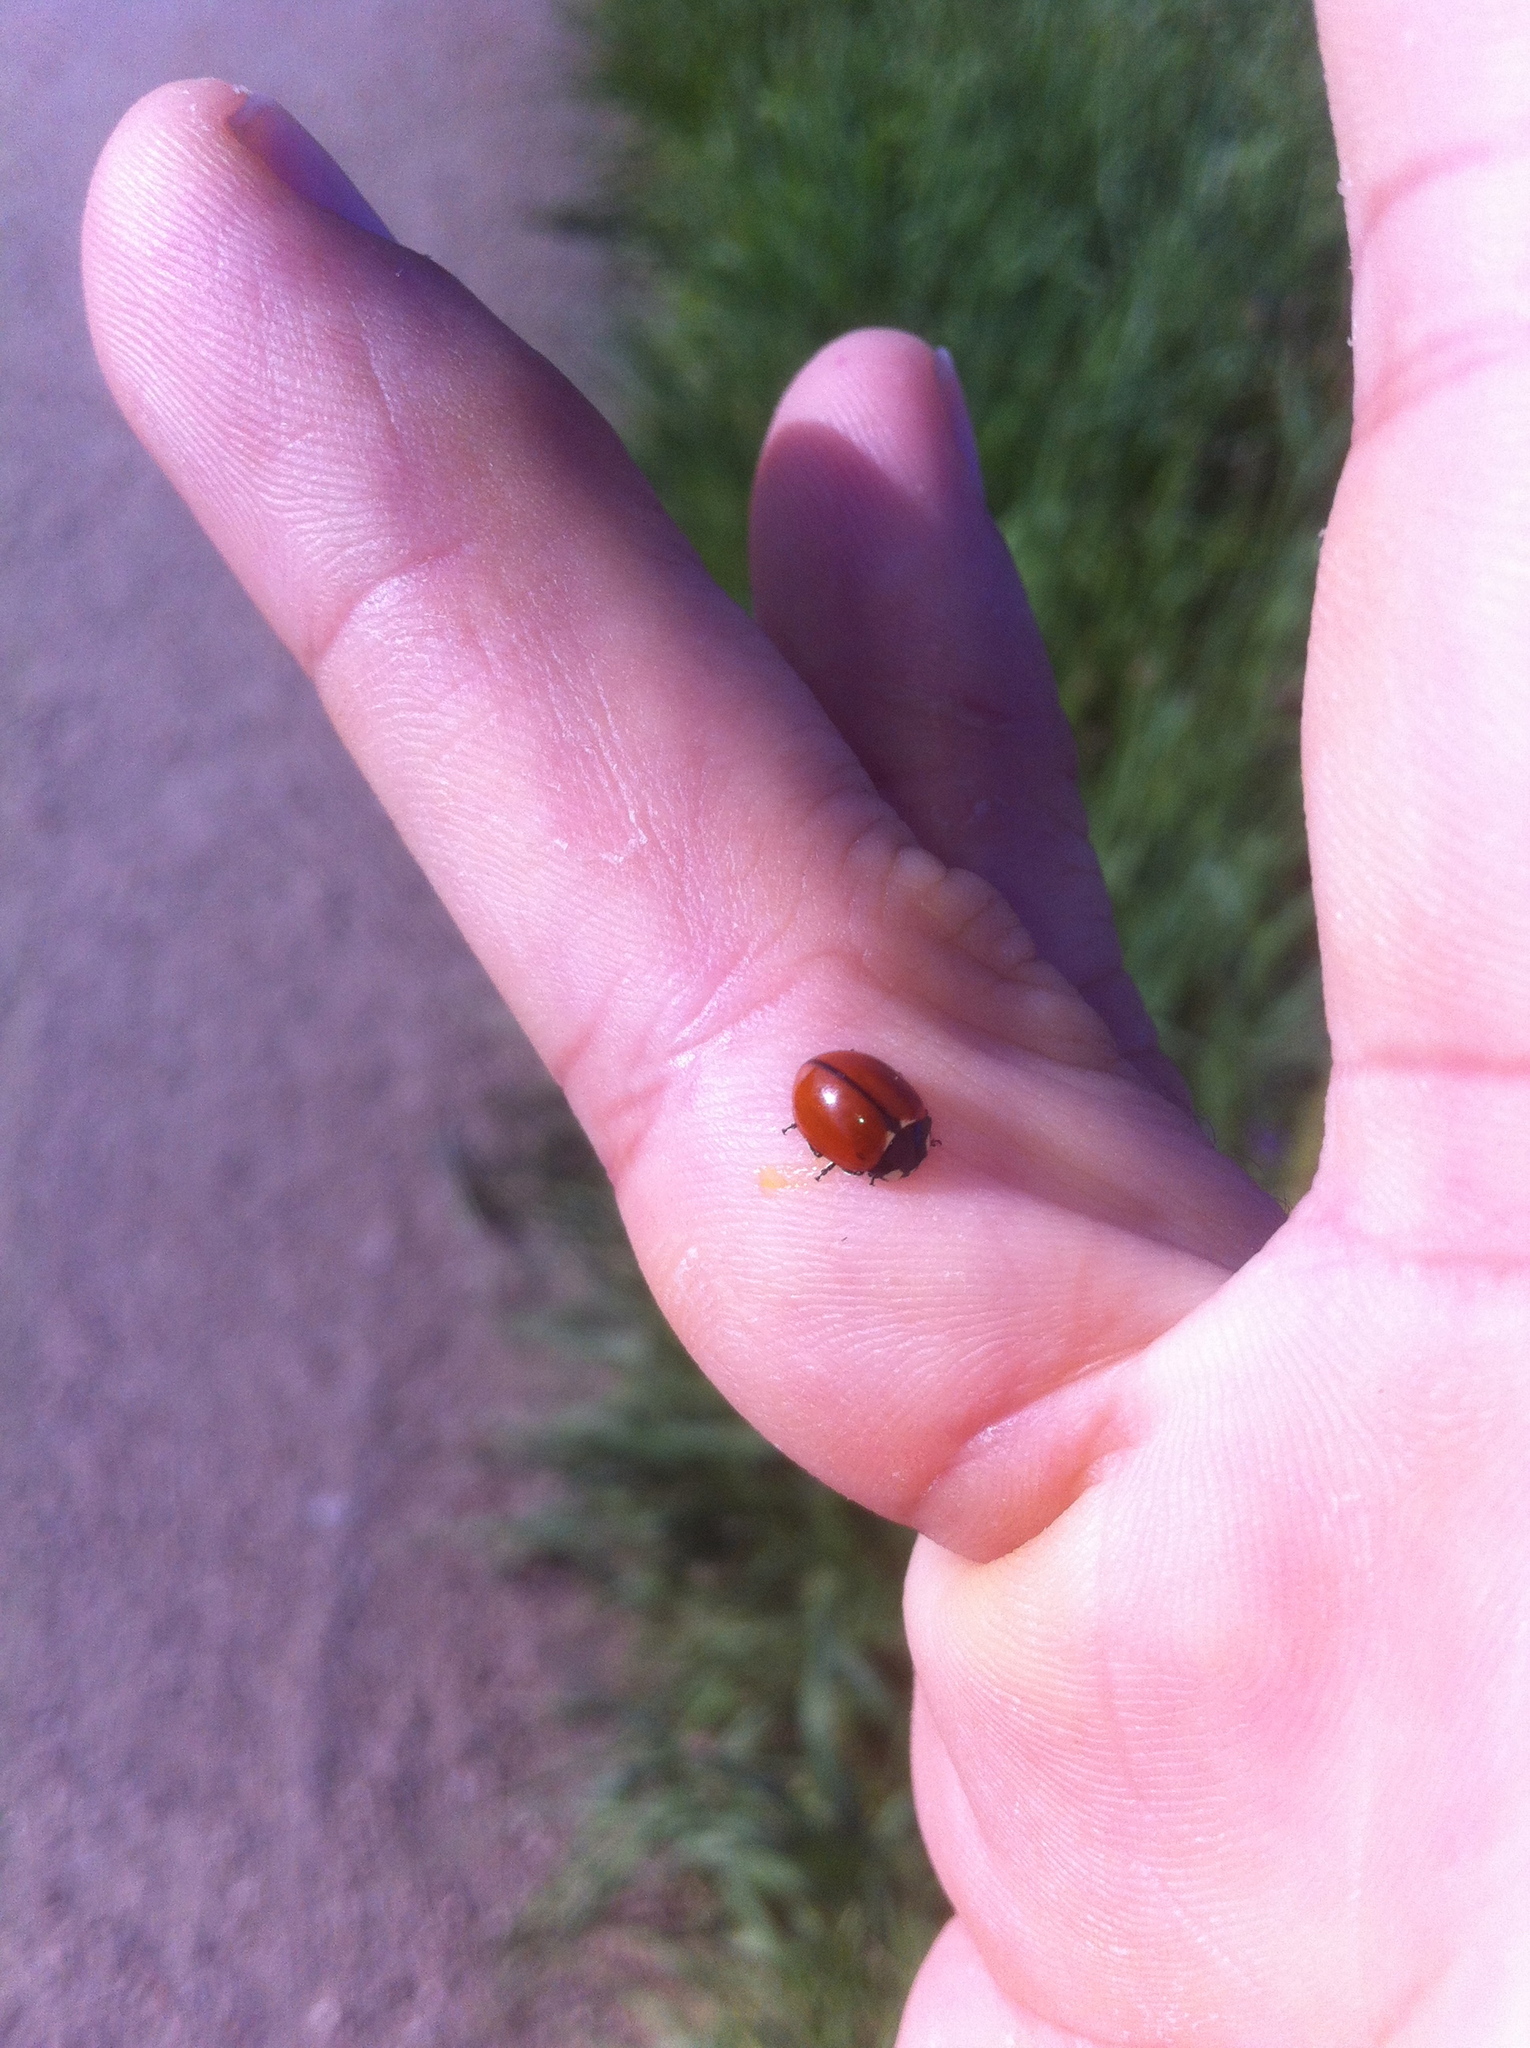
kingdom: Animalia
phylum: Arthropoda
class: Insecta
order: Coleoptera
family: Coccinellidae
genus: Coccinella
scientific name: Coccinella californica
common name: Lady beetle
